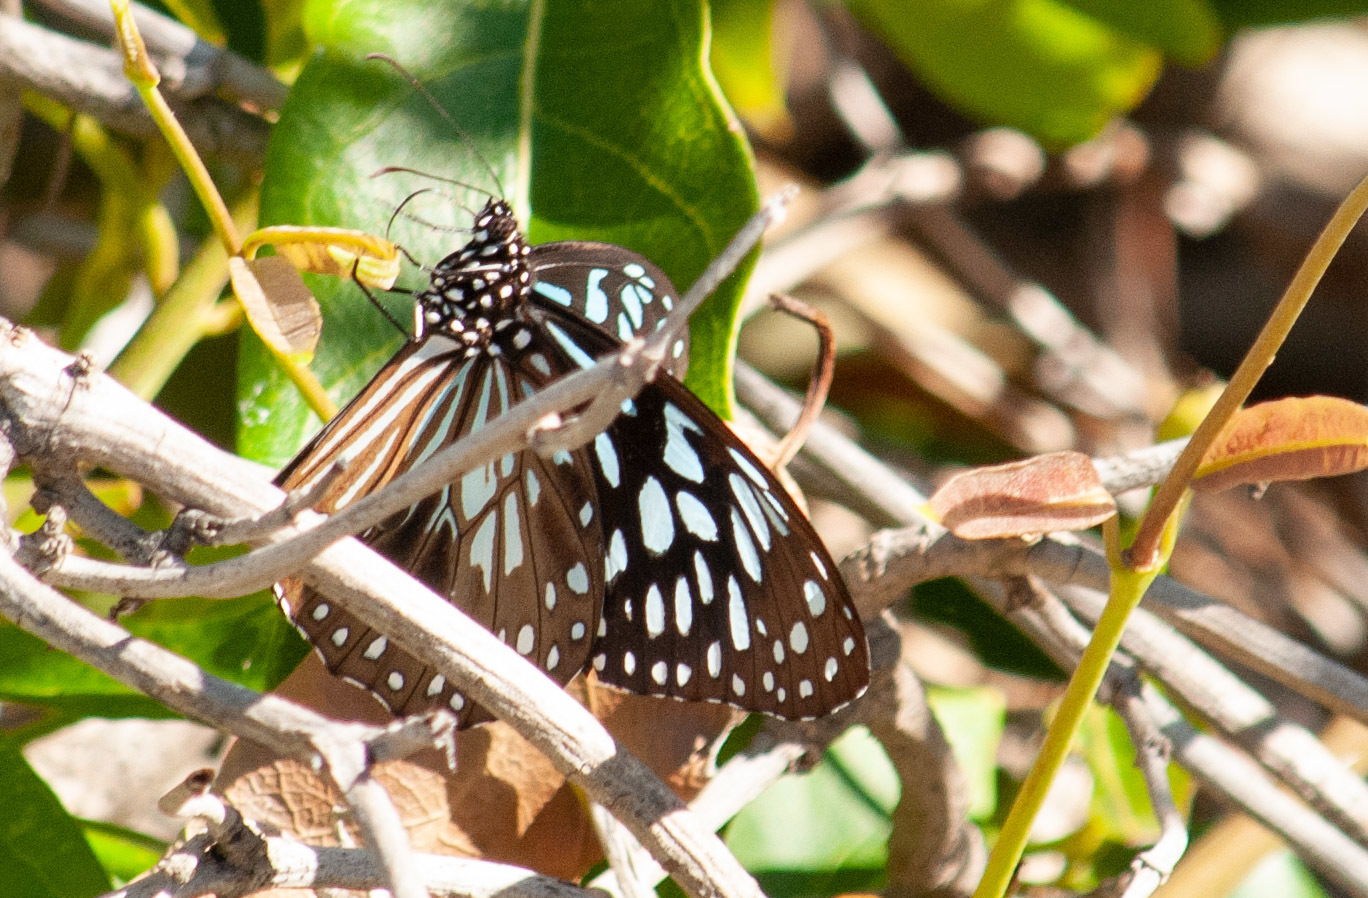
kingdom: Animalia
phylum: Arthropoda
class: Insecta
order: Lepidoptera
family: Nymphalidae
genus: Tirumala
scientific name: Tirumala hamata
